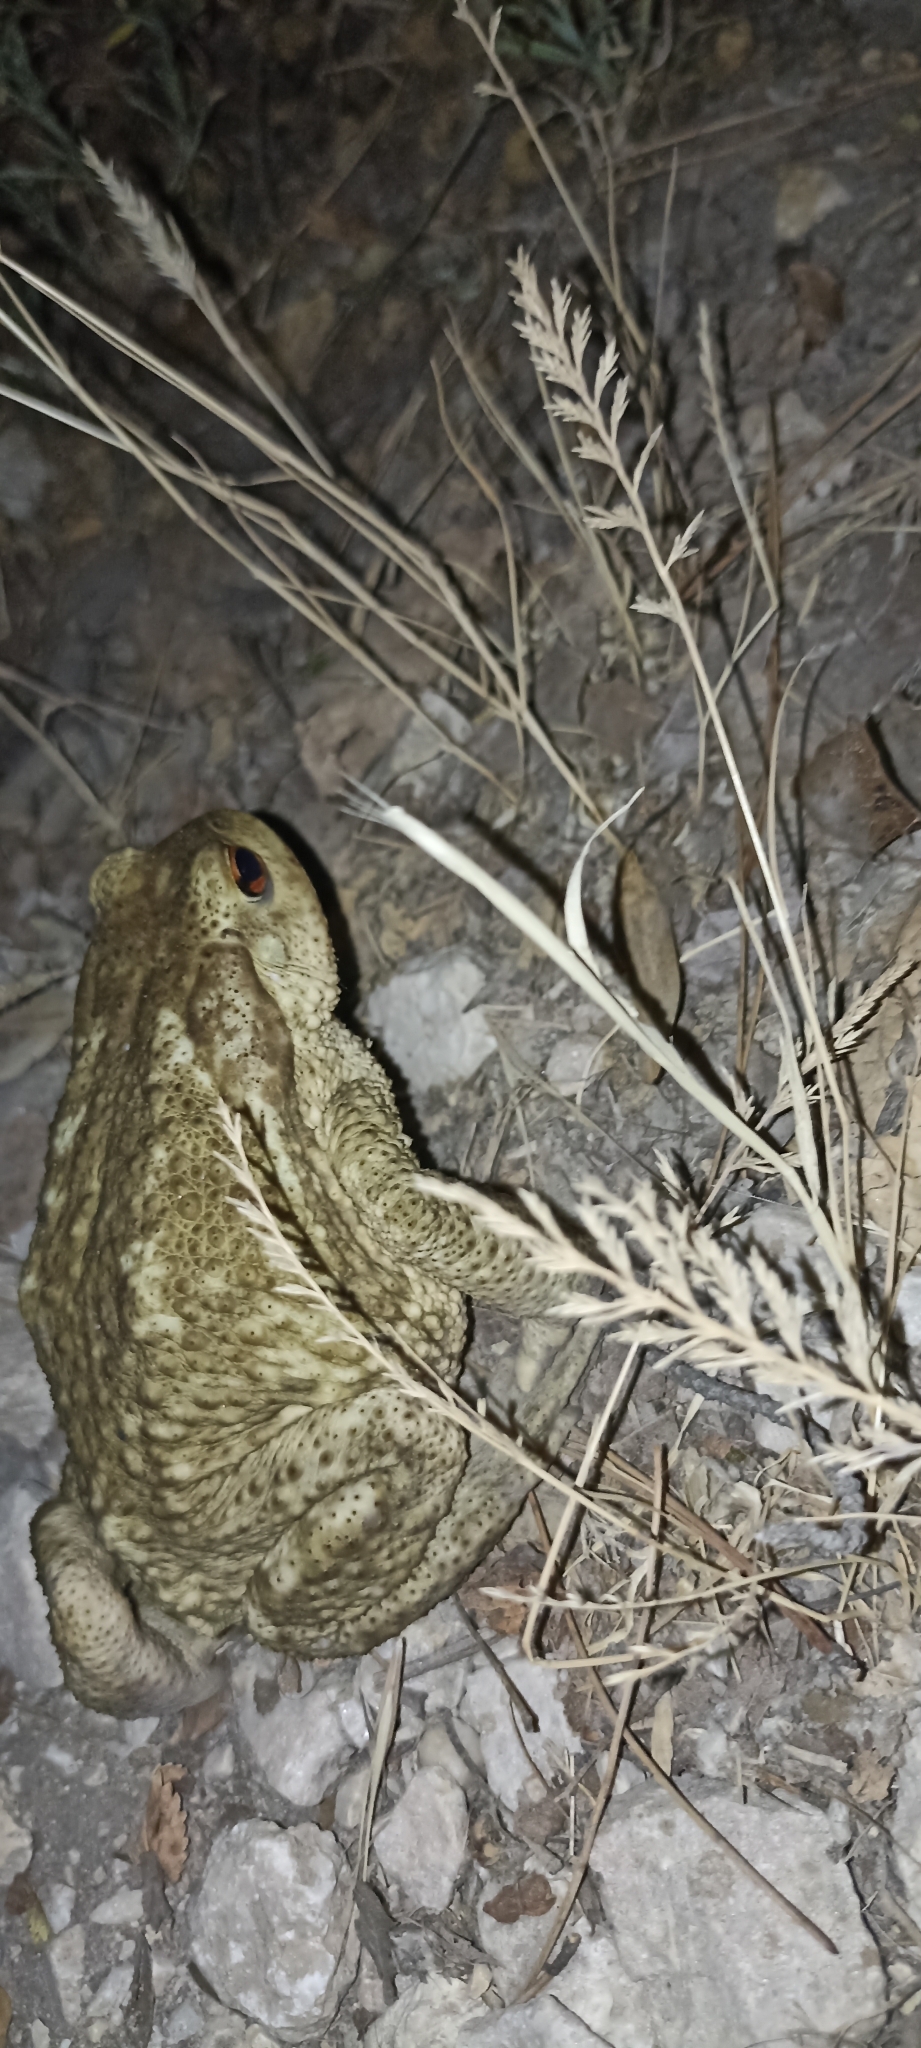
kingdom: Animalia
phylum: Chordata
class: Amphibia
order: Anura
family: Bufonidae
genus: Bufo
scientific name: Bufo spinosus
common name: Western common toad
